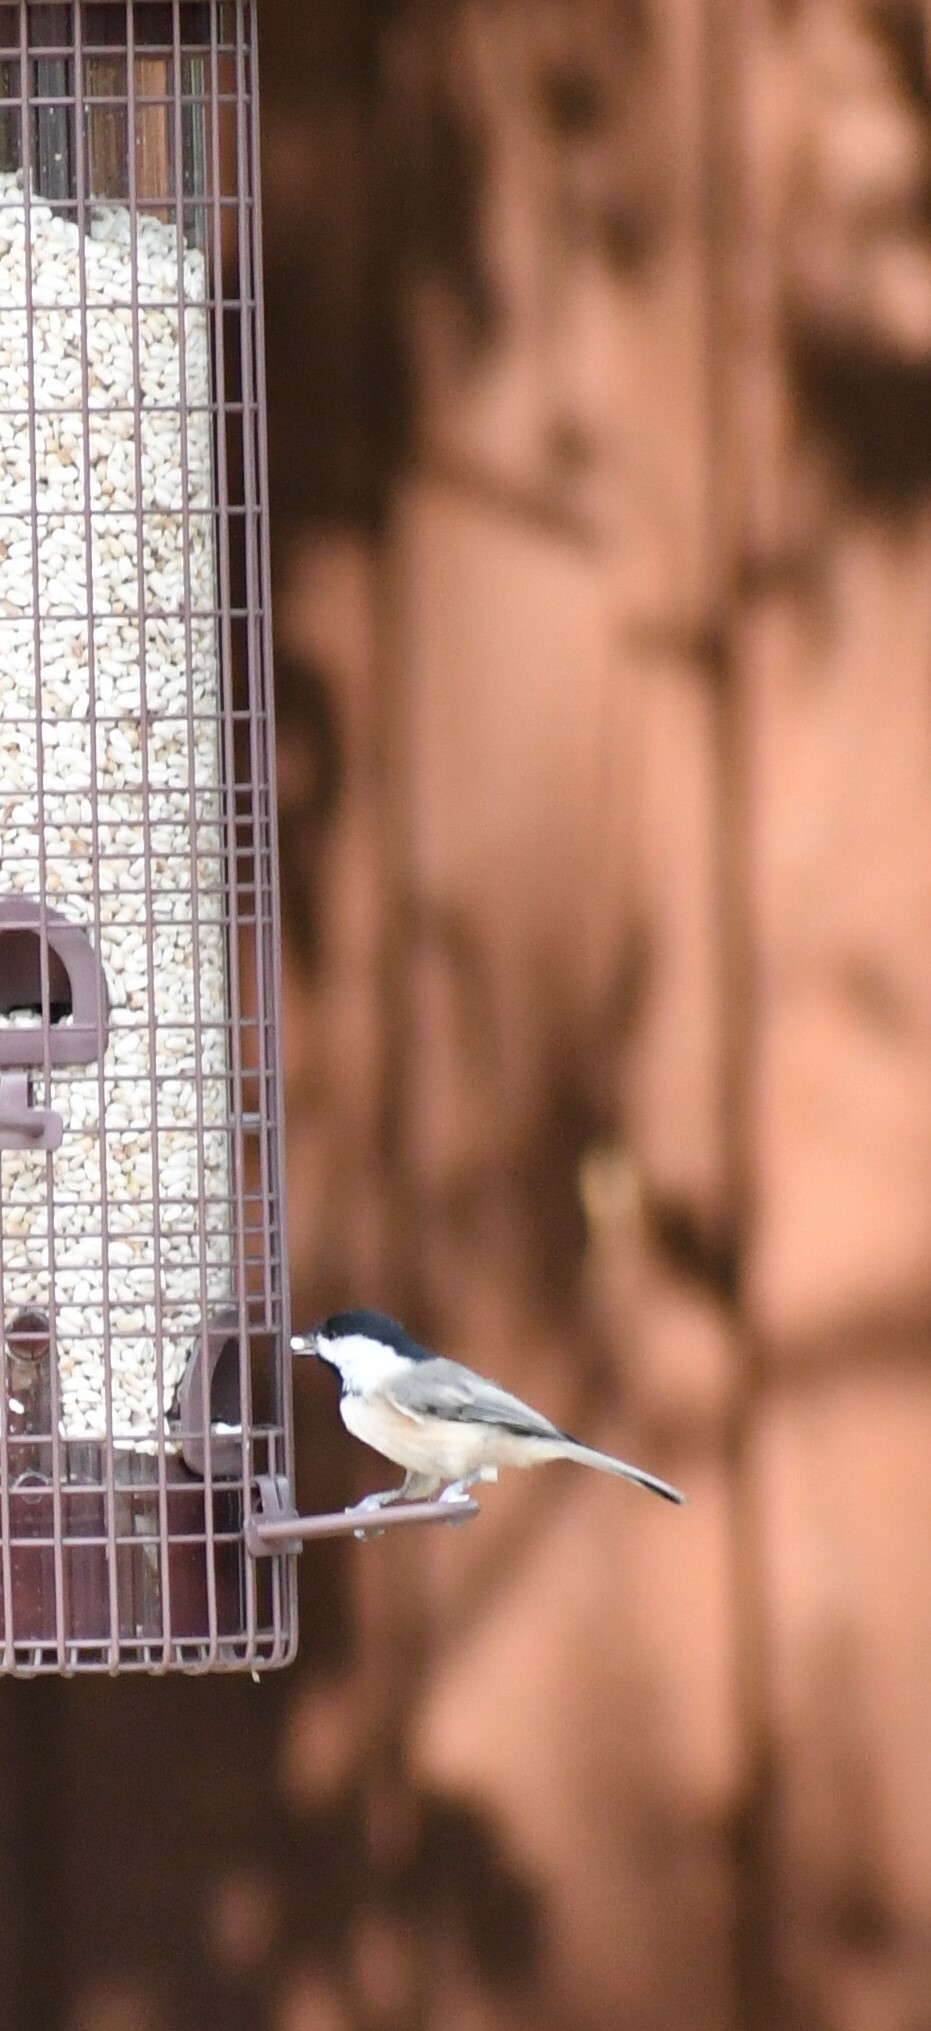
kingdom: Animalia
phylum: Chordata
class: Aves
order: Passeriformes
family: Paridae
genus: Poecile
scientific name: Poecile carolinensis
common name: Carolina chickadee
